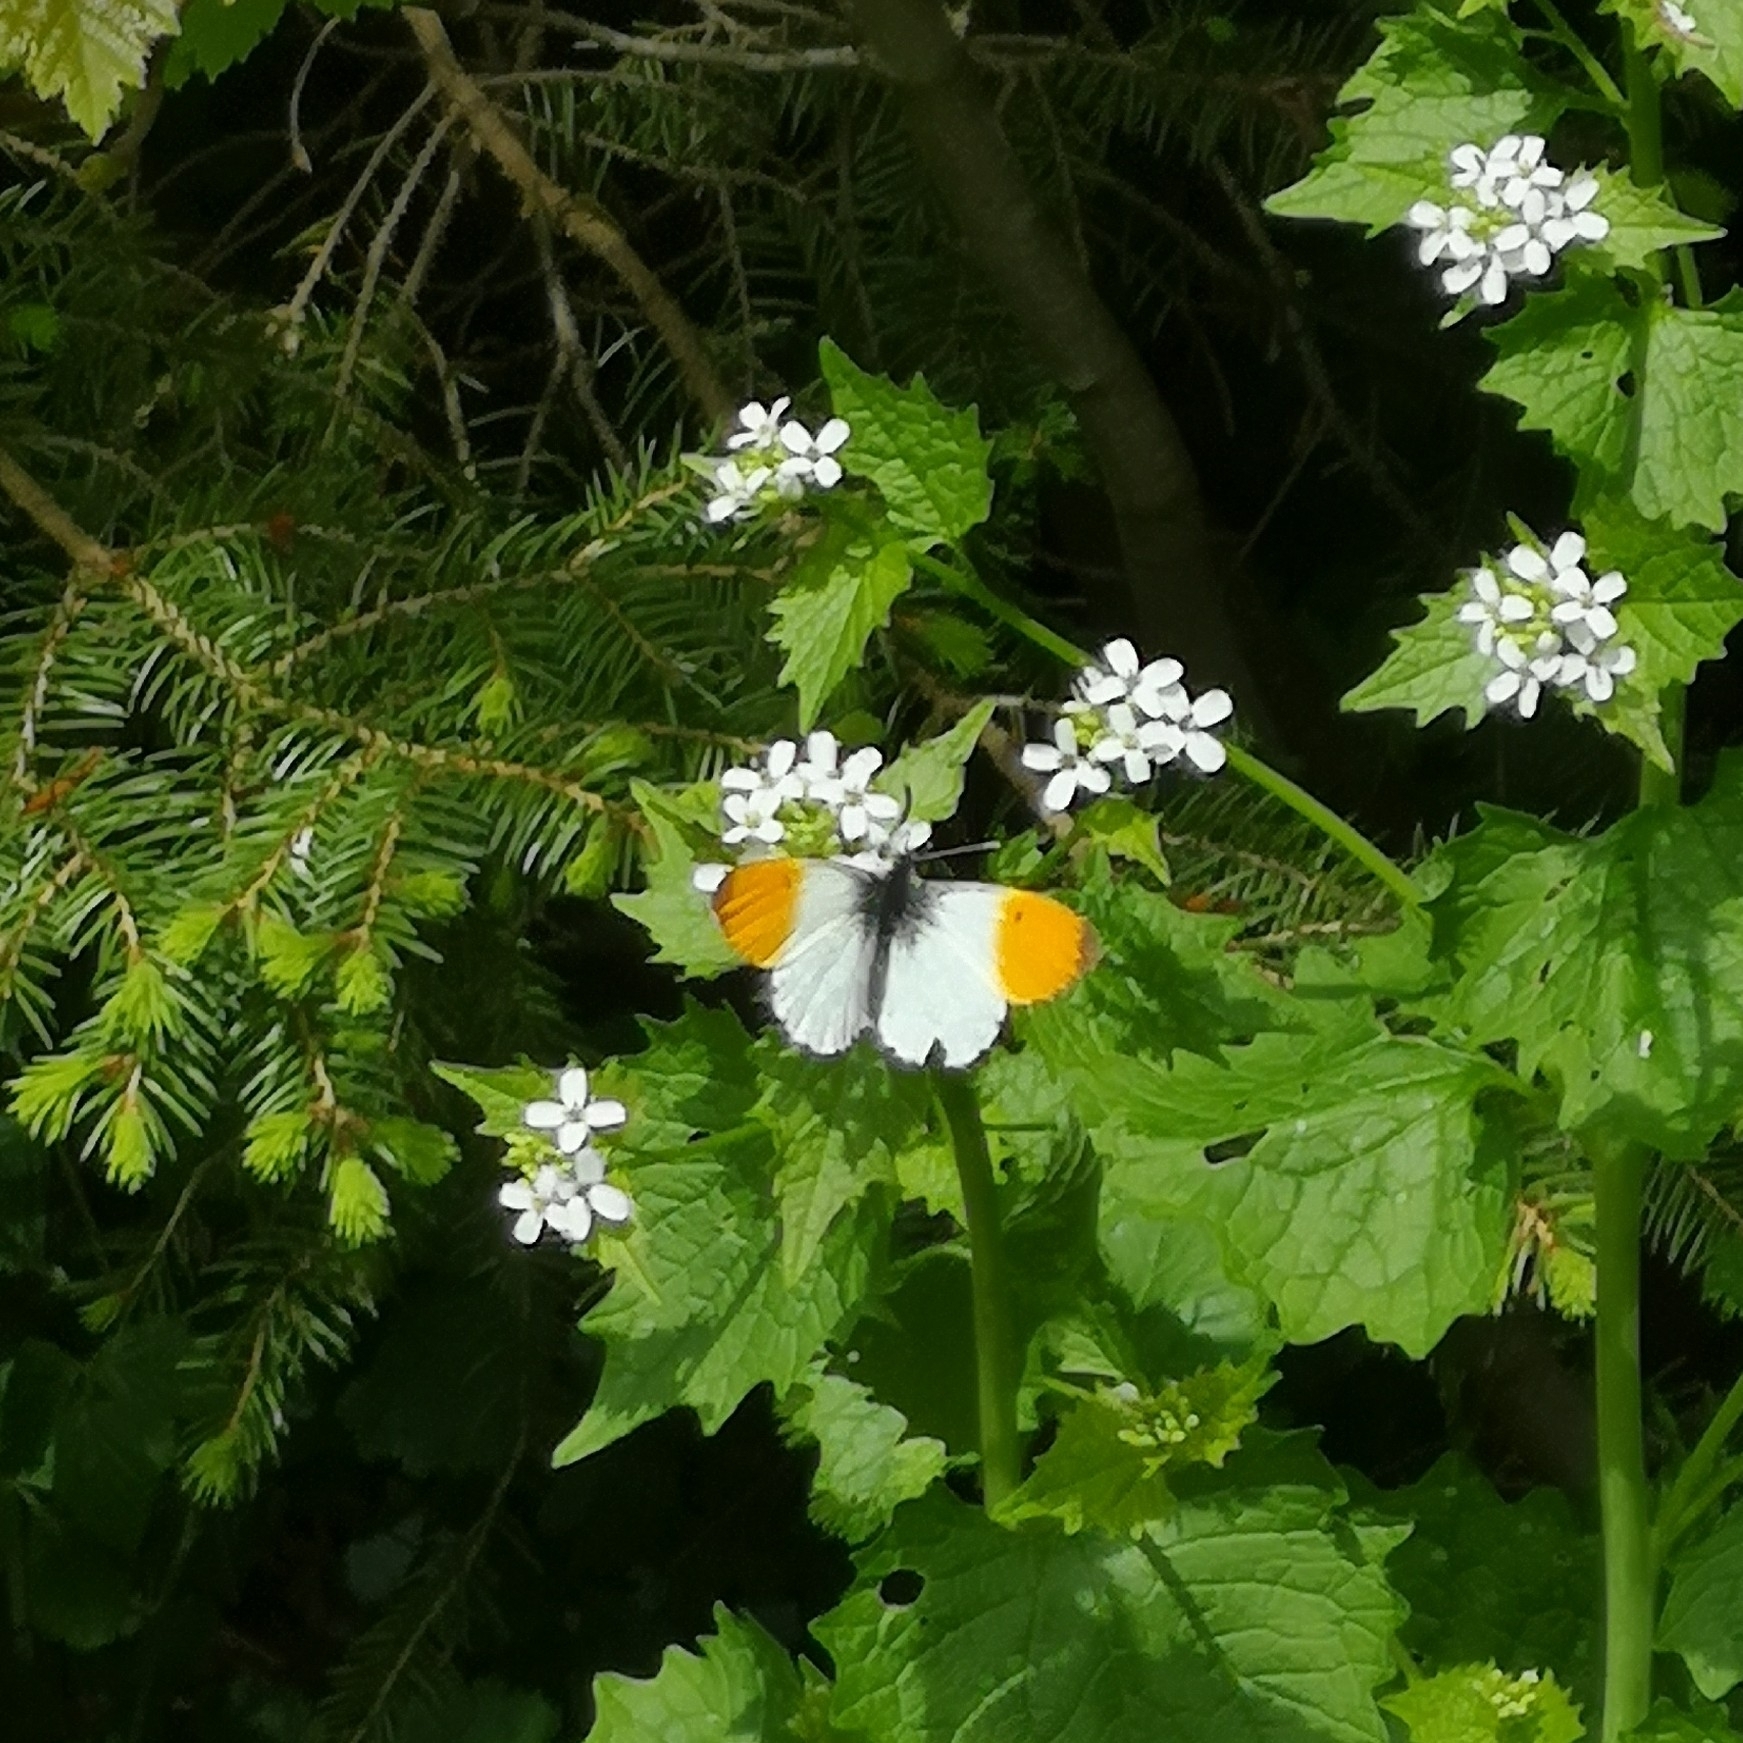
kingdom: Animalia
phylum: Arthropoda
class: Insecta
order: Lepidoptera
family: Pieridae
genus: Anthocharis
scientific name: Anthocharis cardamines
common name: Orange-tip
